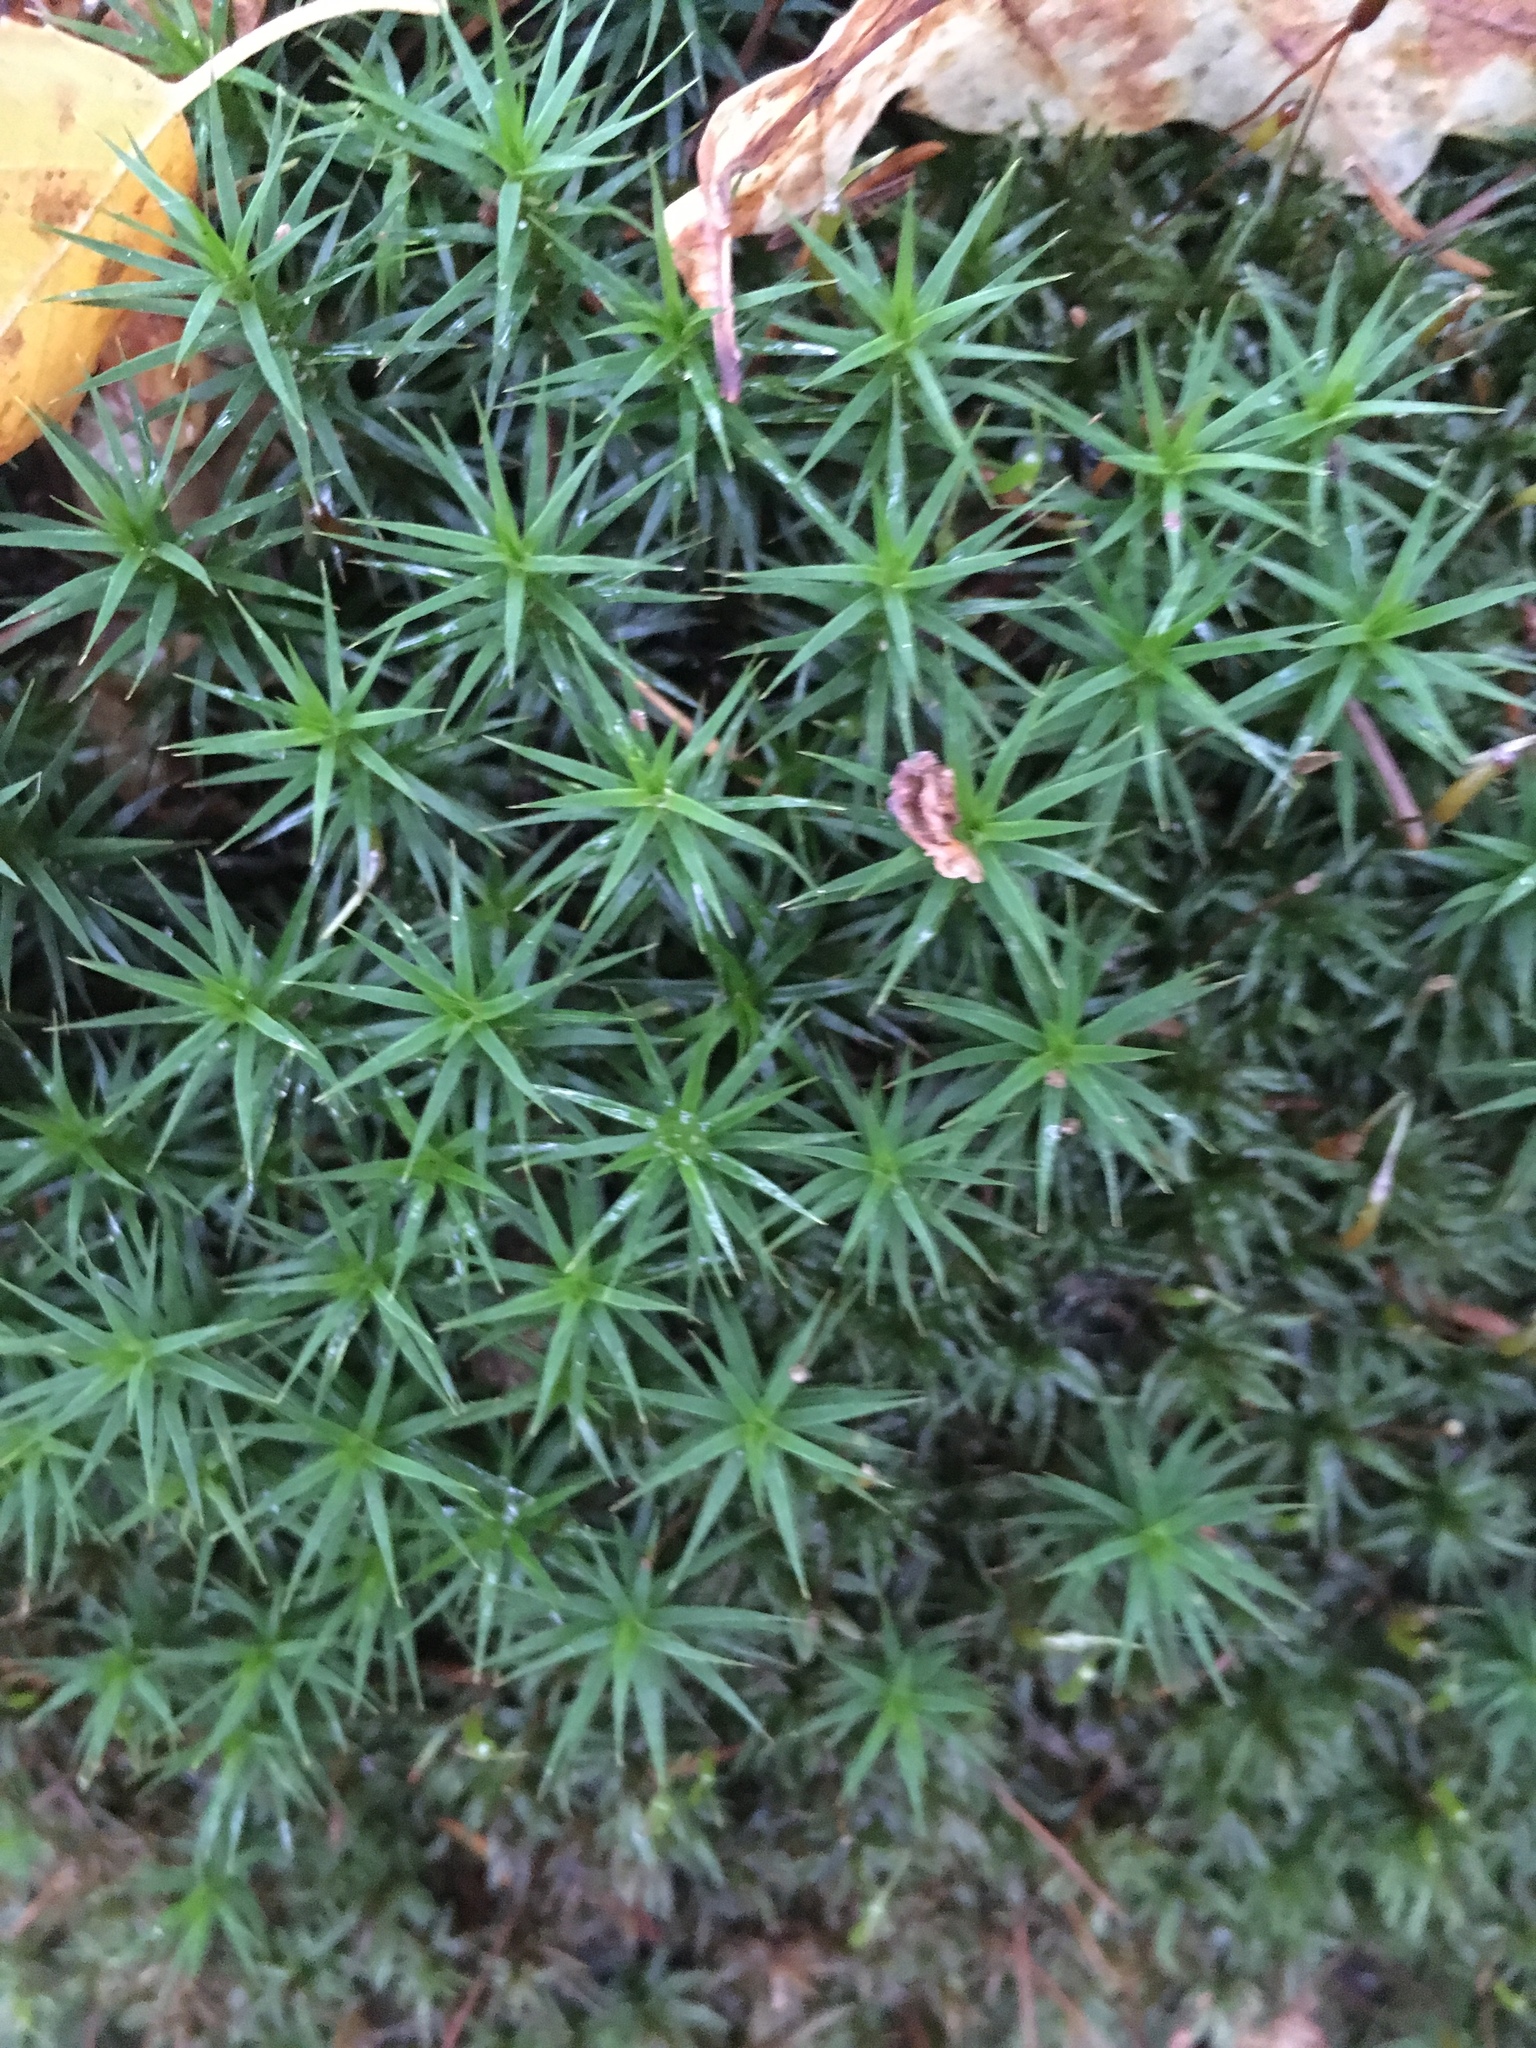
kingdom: Plantae
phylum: Bryophyta
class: Polytrichopsida
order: Polytrichales
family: Polytrichaceae
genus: Polytrichum
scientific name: Polytrichum commune
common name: Common haircap
